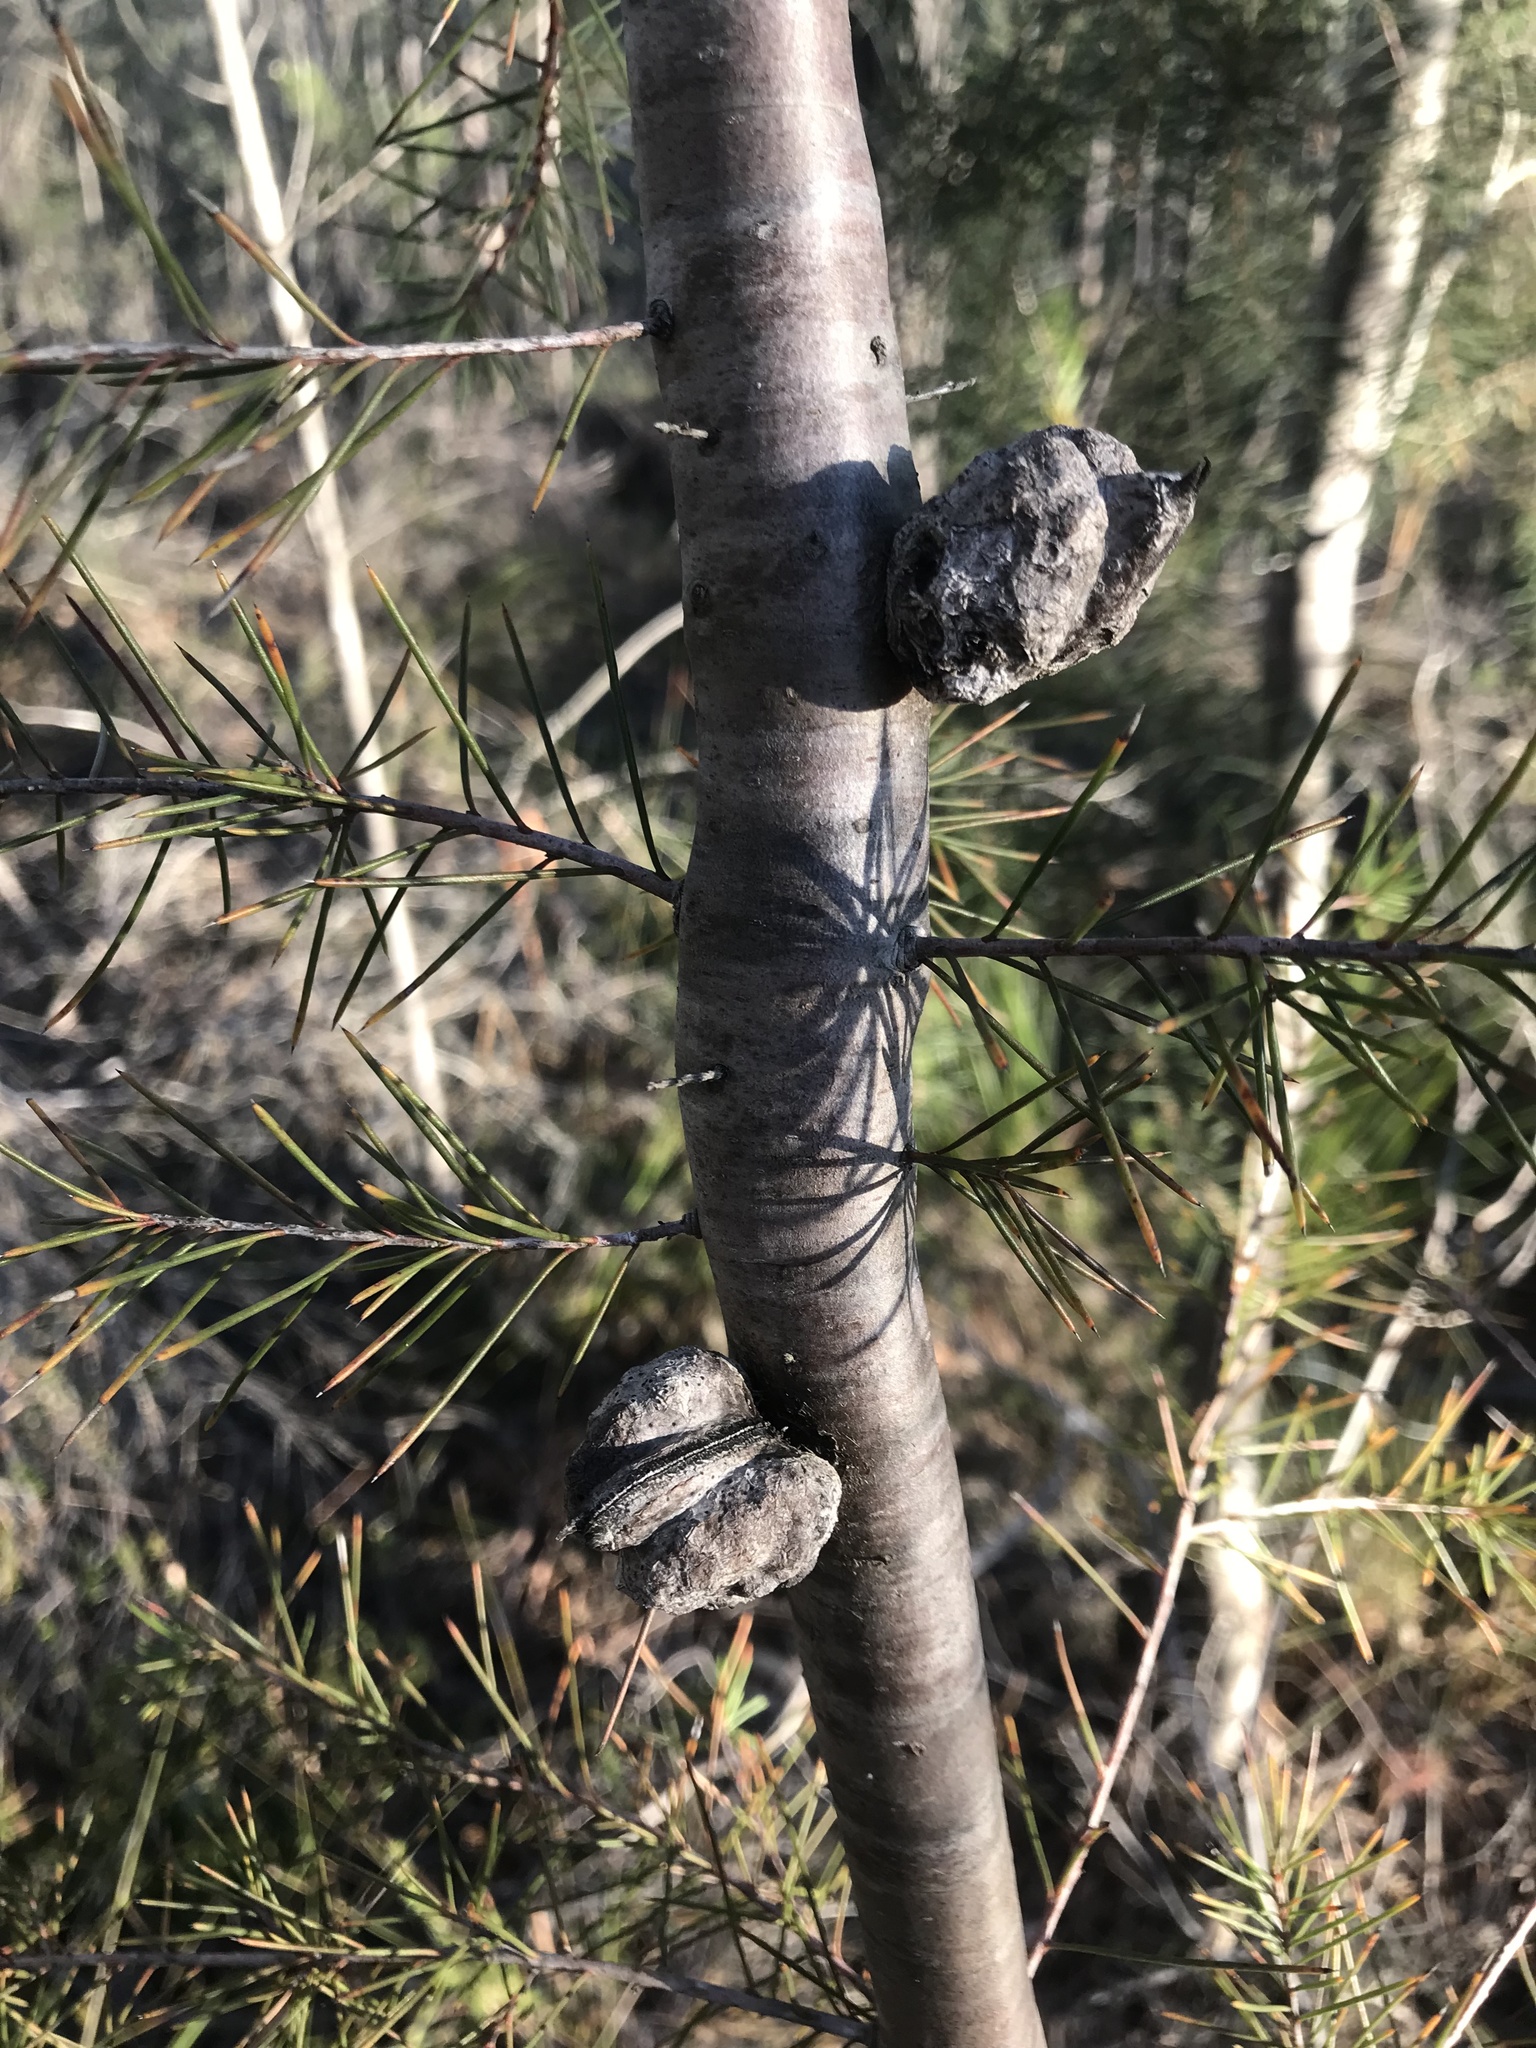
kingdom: Plantae
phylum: Tracheophyta
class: Magnoliopsida
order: Proteales
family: Proteaceae
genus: Hakea
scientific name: Hakea sericea
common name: Needle bush
